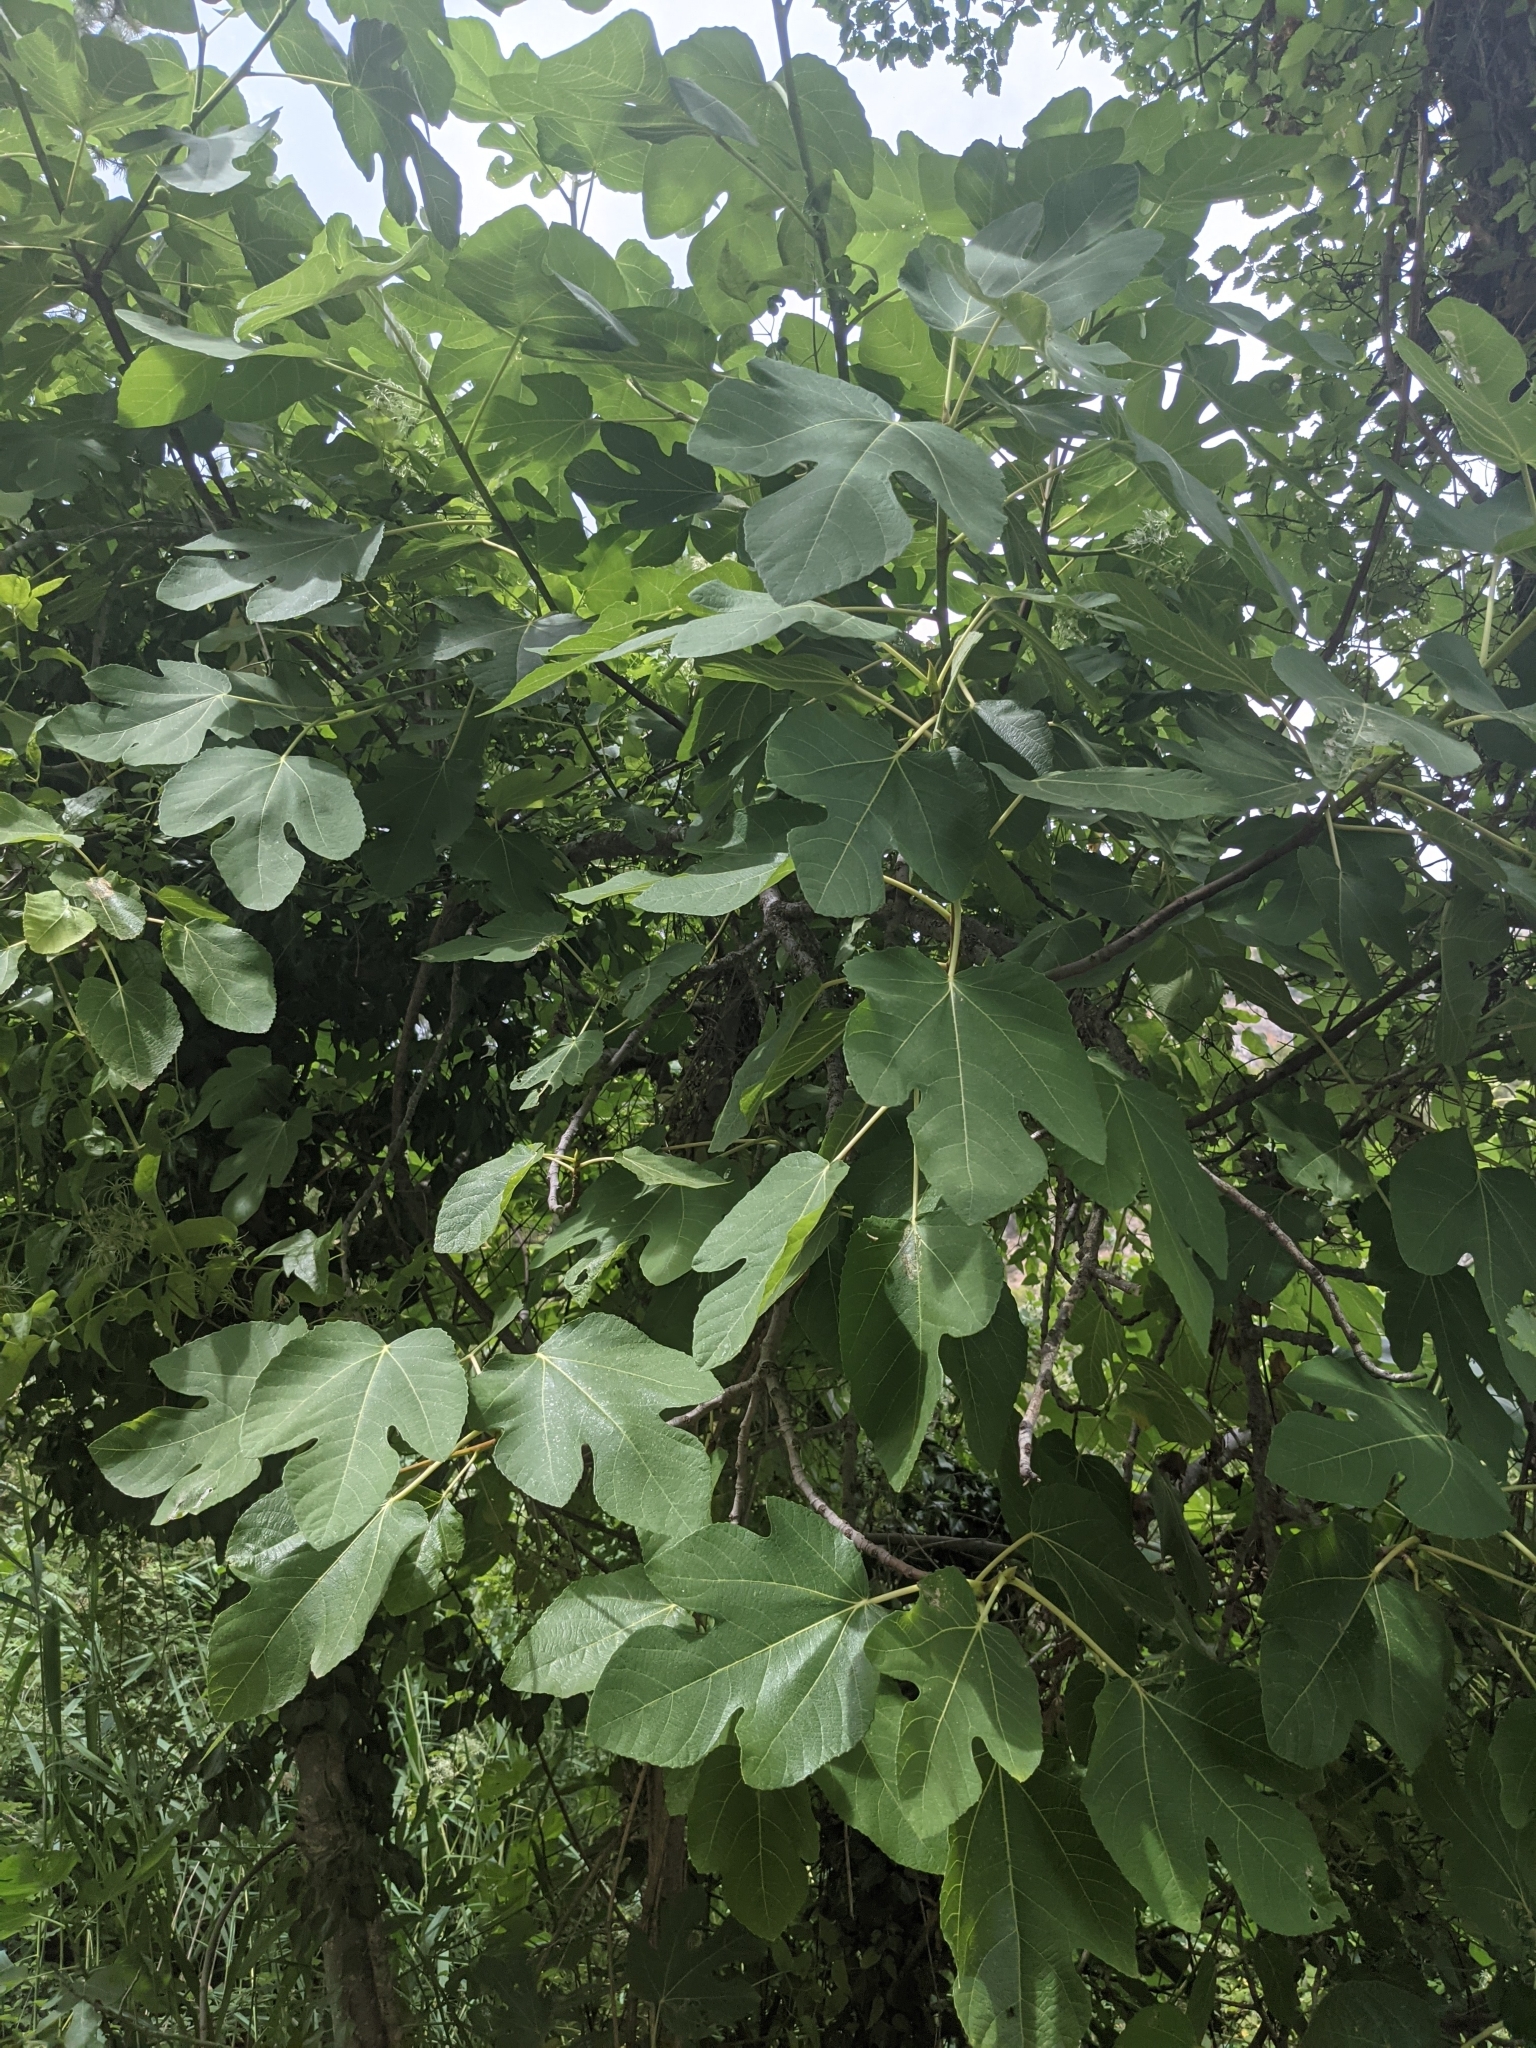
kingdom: Plantae
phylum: Tracheophyta
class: Magnoliopsida
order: Rosales
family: Moraceae
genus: Ficus
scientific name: Ficus carica
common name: Fig
